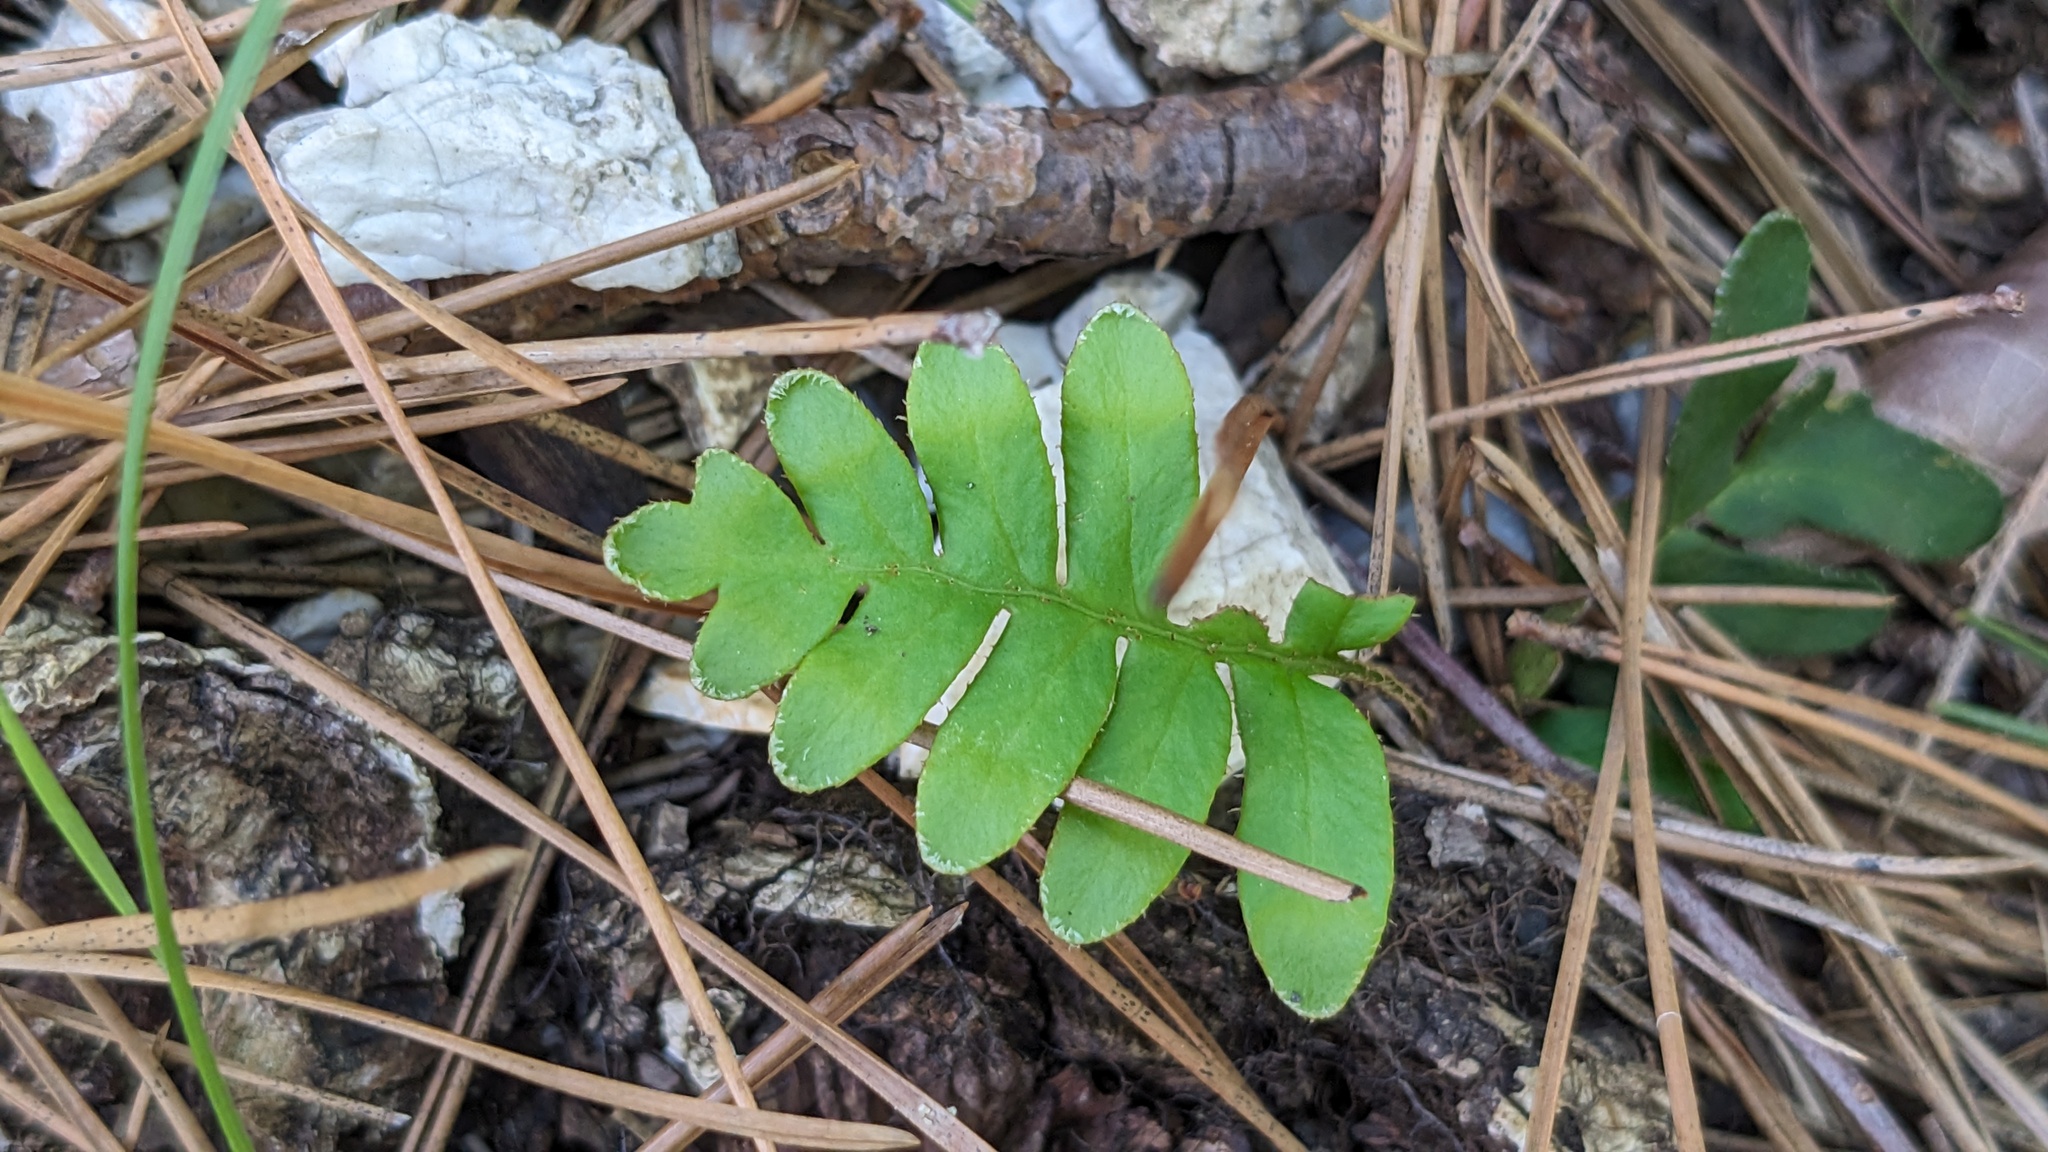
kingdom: Plantae
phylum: Tracheophyta
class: Polypodiopsida
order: Polypodiales
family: Polypodiaceae
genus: Pleopeltis
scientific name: Pleopeltis michauxiana
